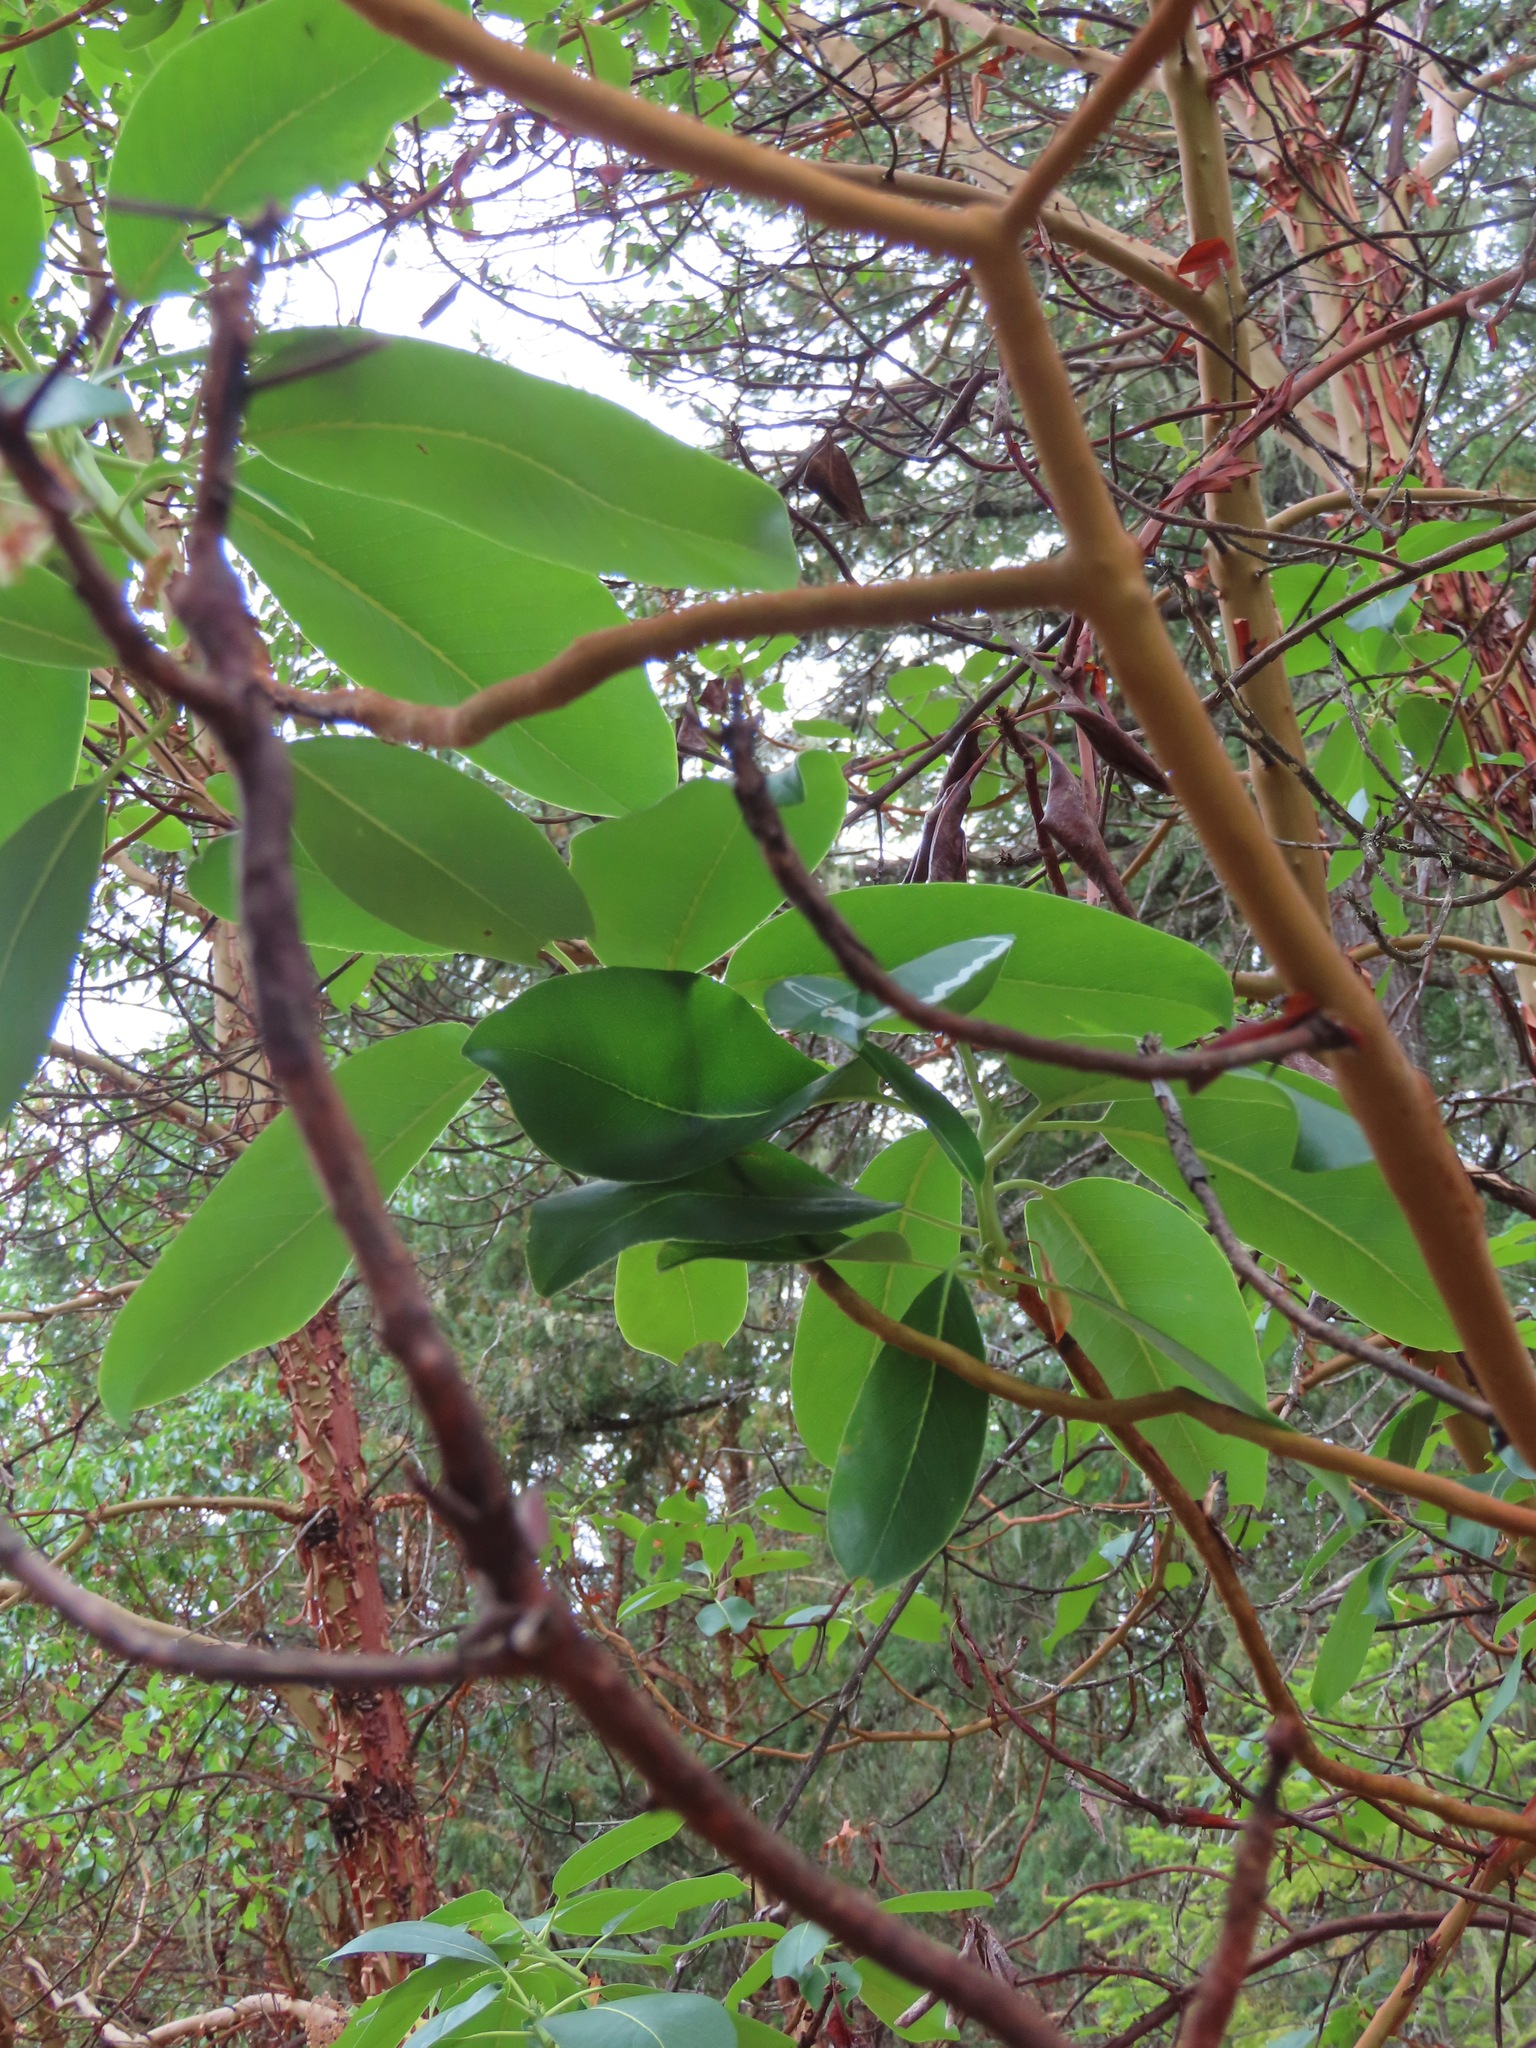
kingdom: Plantae
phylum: Tracheophyta
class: Magnoliopsida
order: Ericales
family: Ericaceae
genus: Arbutus
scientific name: Arbutus menziesii
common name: Pacific madrone
